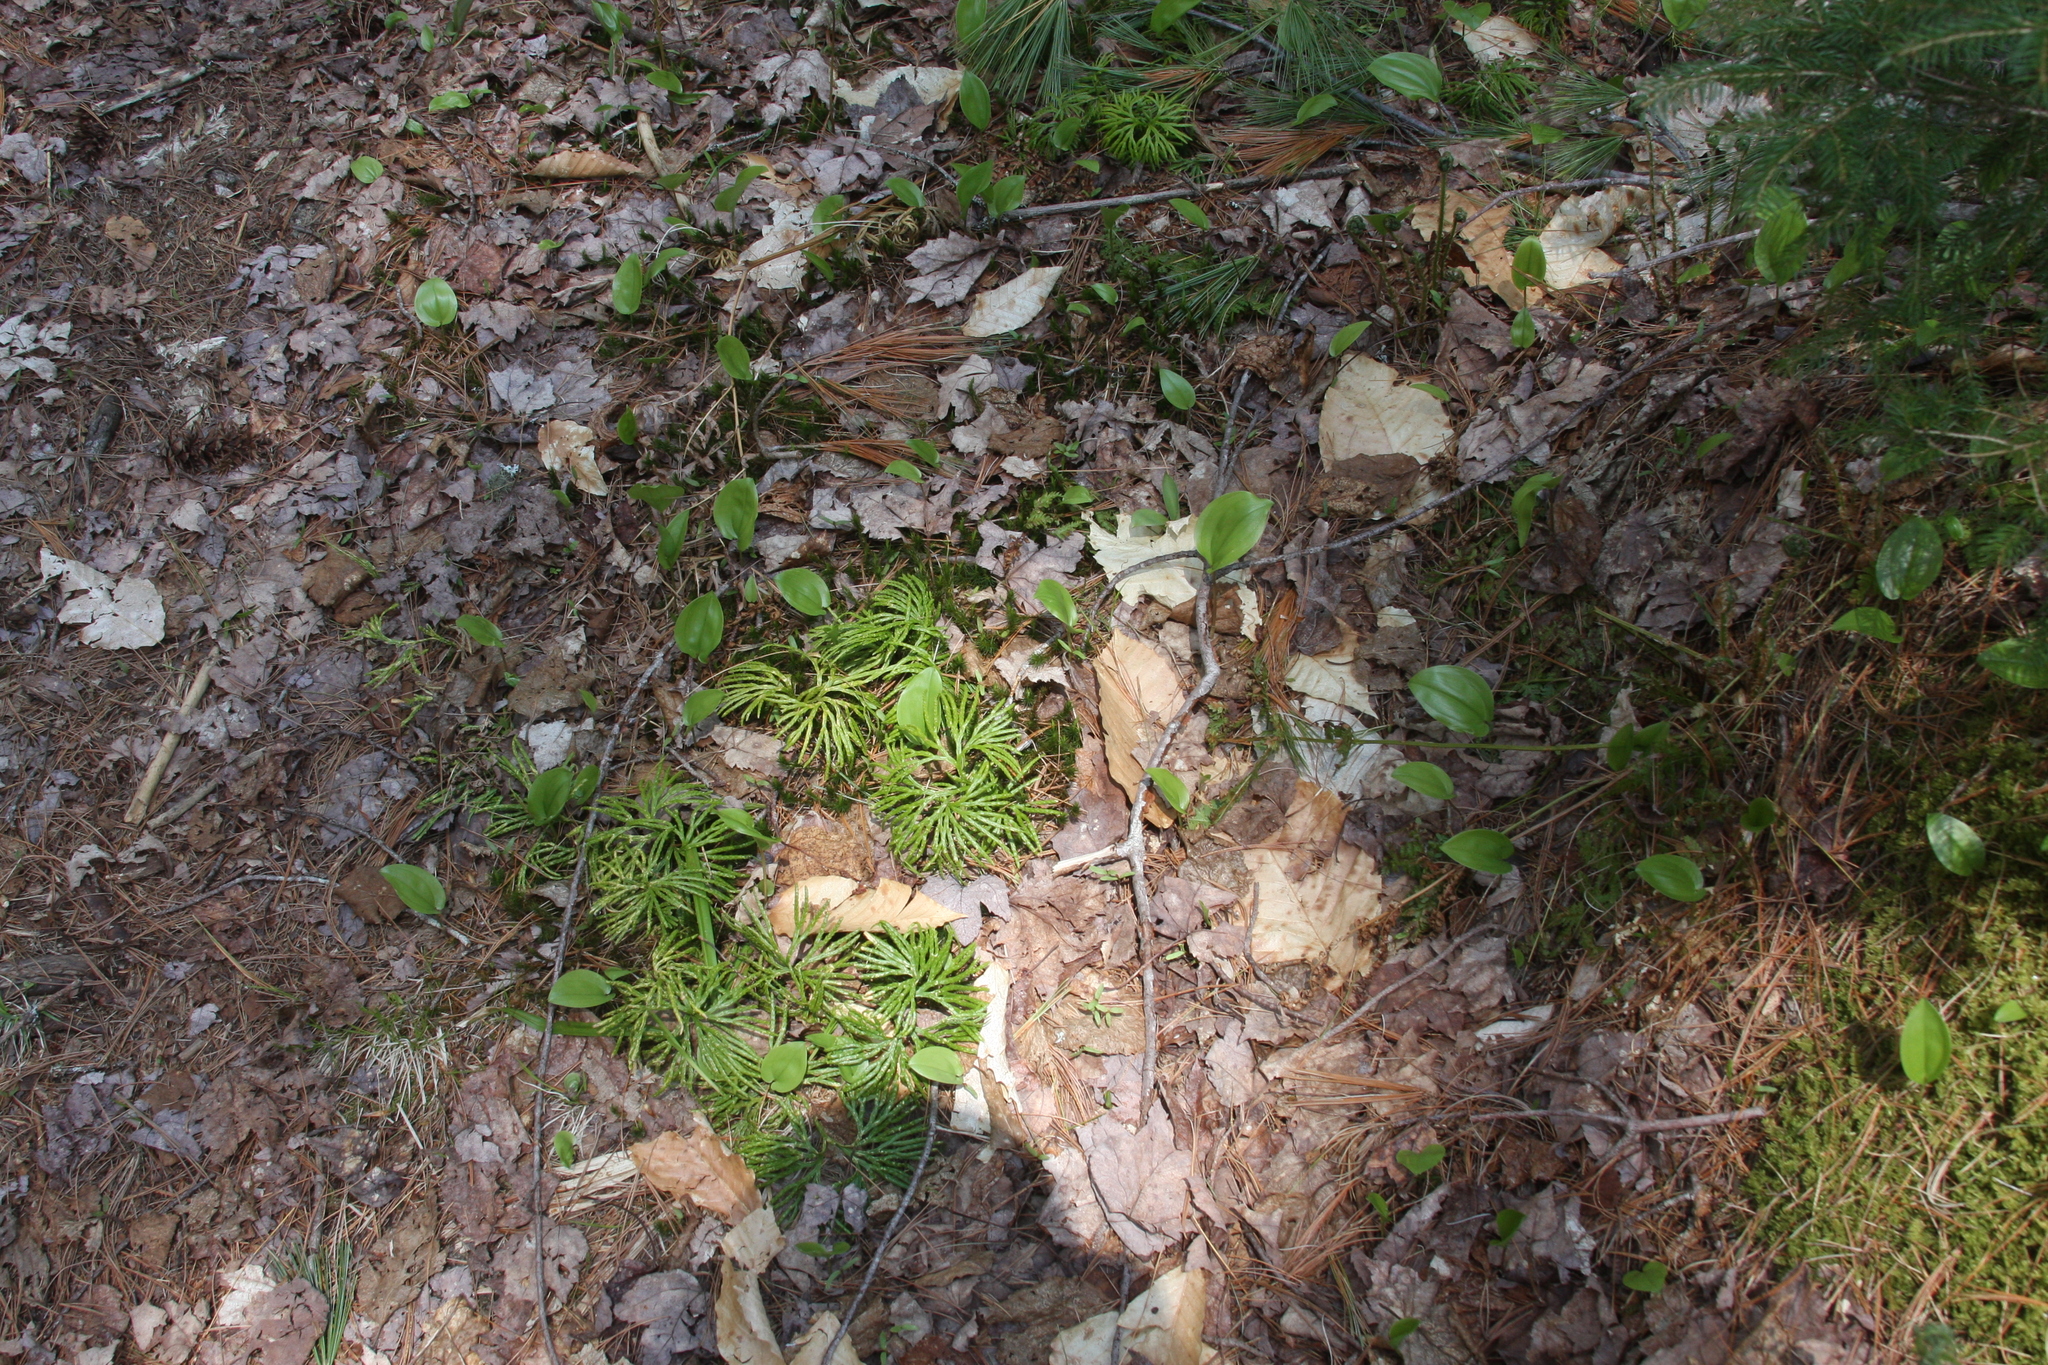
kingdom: Plantae
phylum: Tracheophyta
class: Liliopsida
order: Asparagales
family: Asparagaceae
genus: Maianthemum
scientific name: Maianthemum canadense
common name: False lily-of-the-valley
